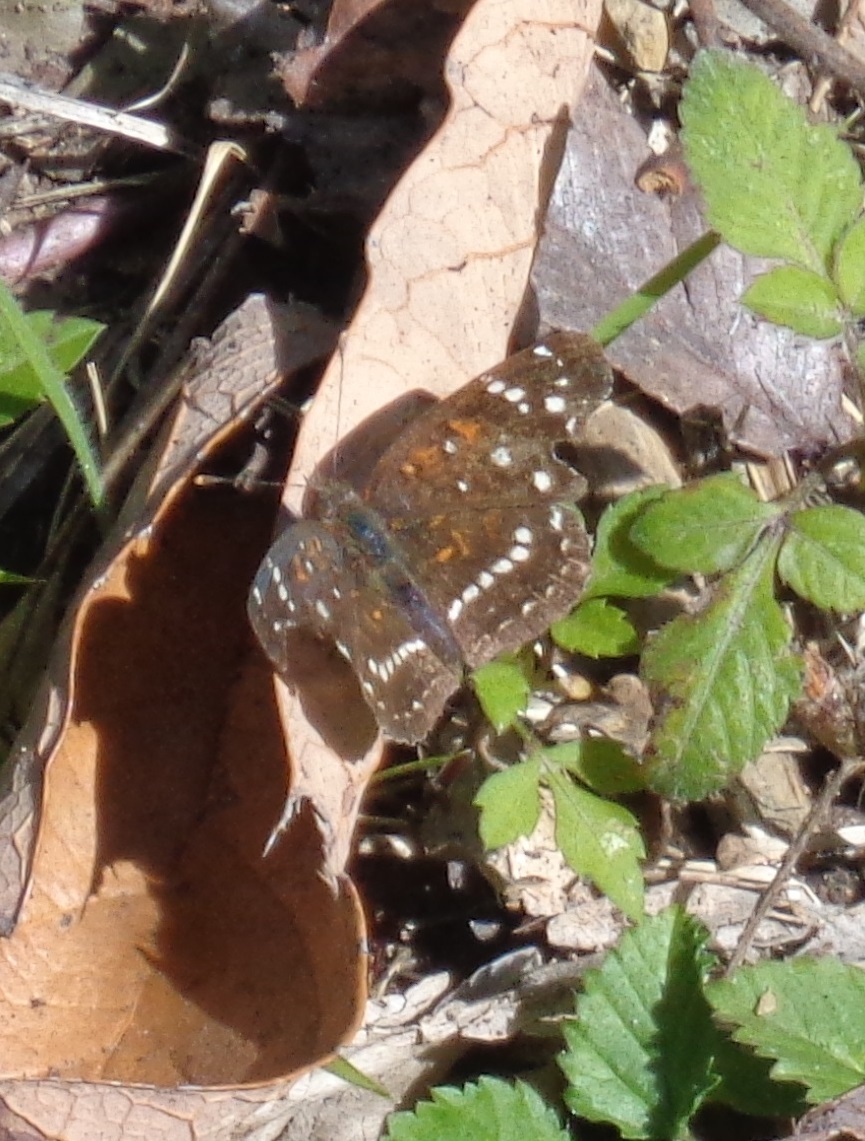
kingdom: Animalia
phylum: Arthropoda
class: Insecta
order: Lepidoptera
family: Nymphalidae
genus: Anthanassa
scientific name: Anthanassa texana
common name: Texan crescent
